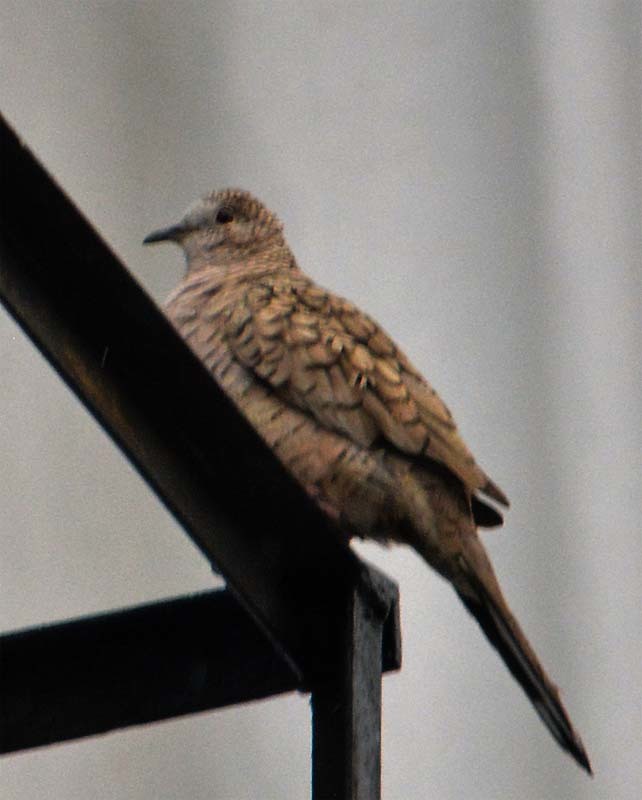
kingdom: Animalia
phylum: Chordata
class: Aves
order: Columbiformes
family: Columbidae
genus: Columbina
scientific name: Columbina inca
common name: Inca dove
